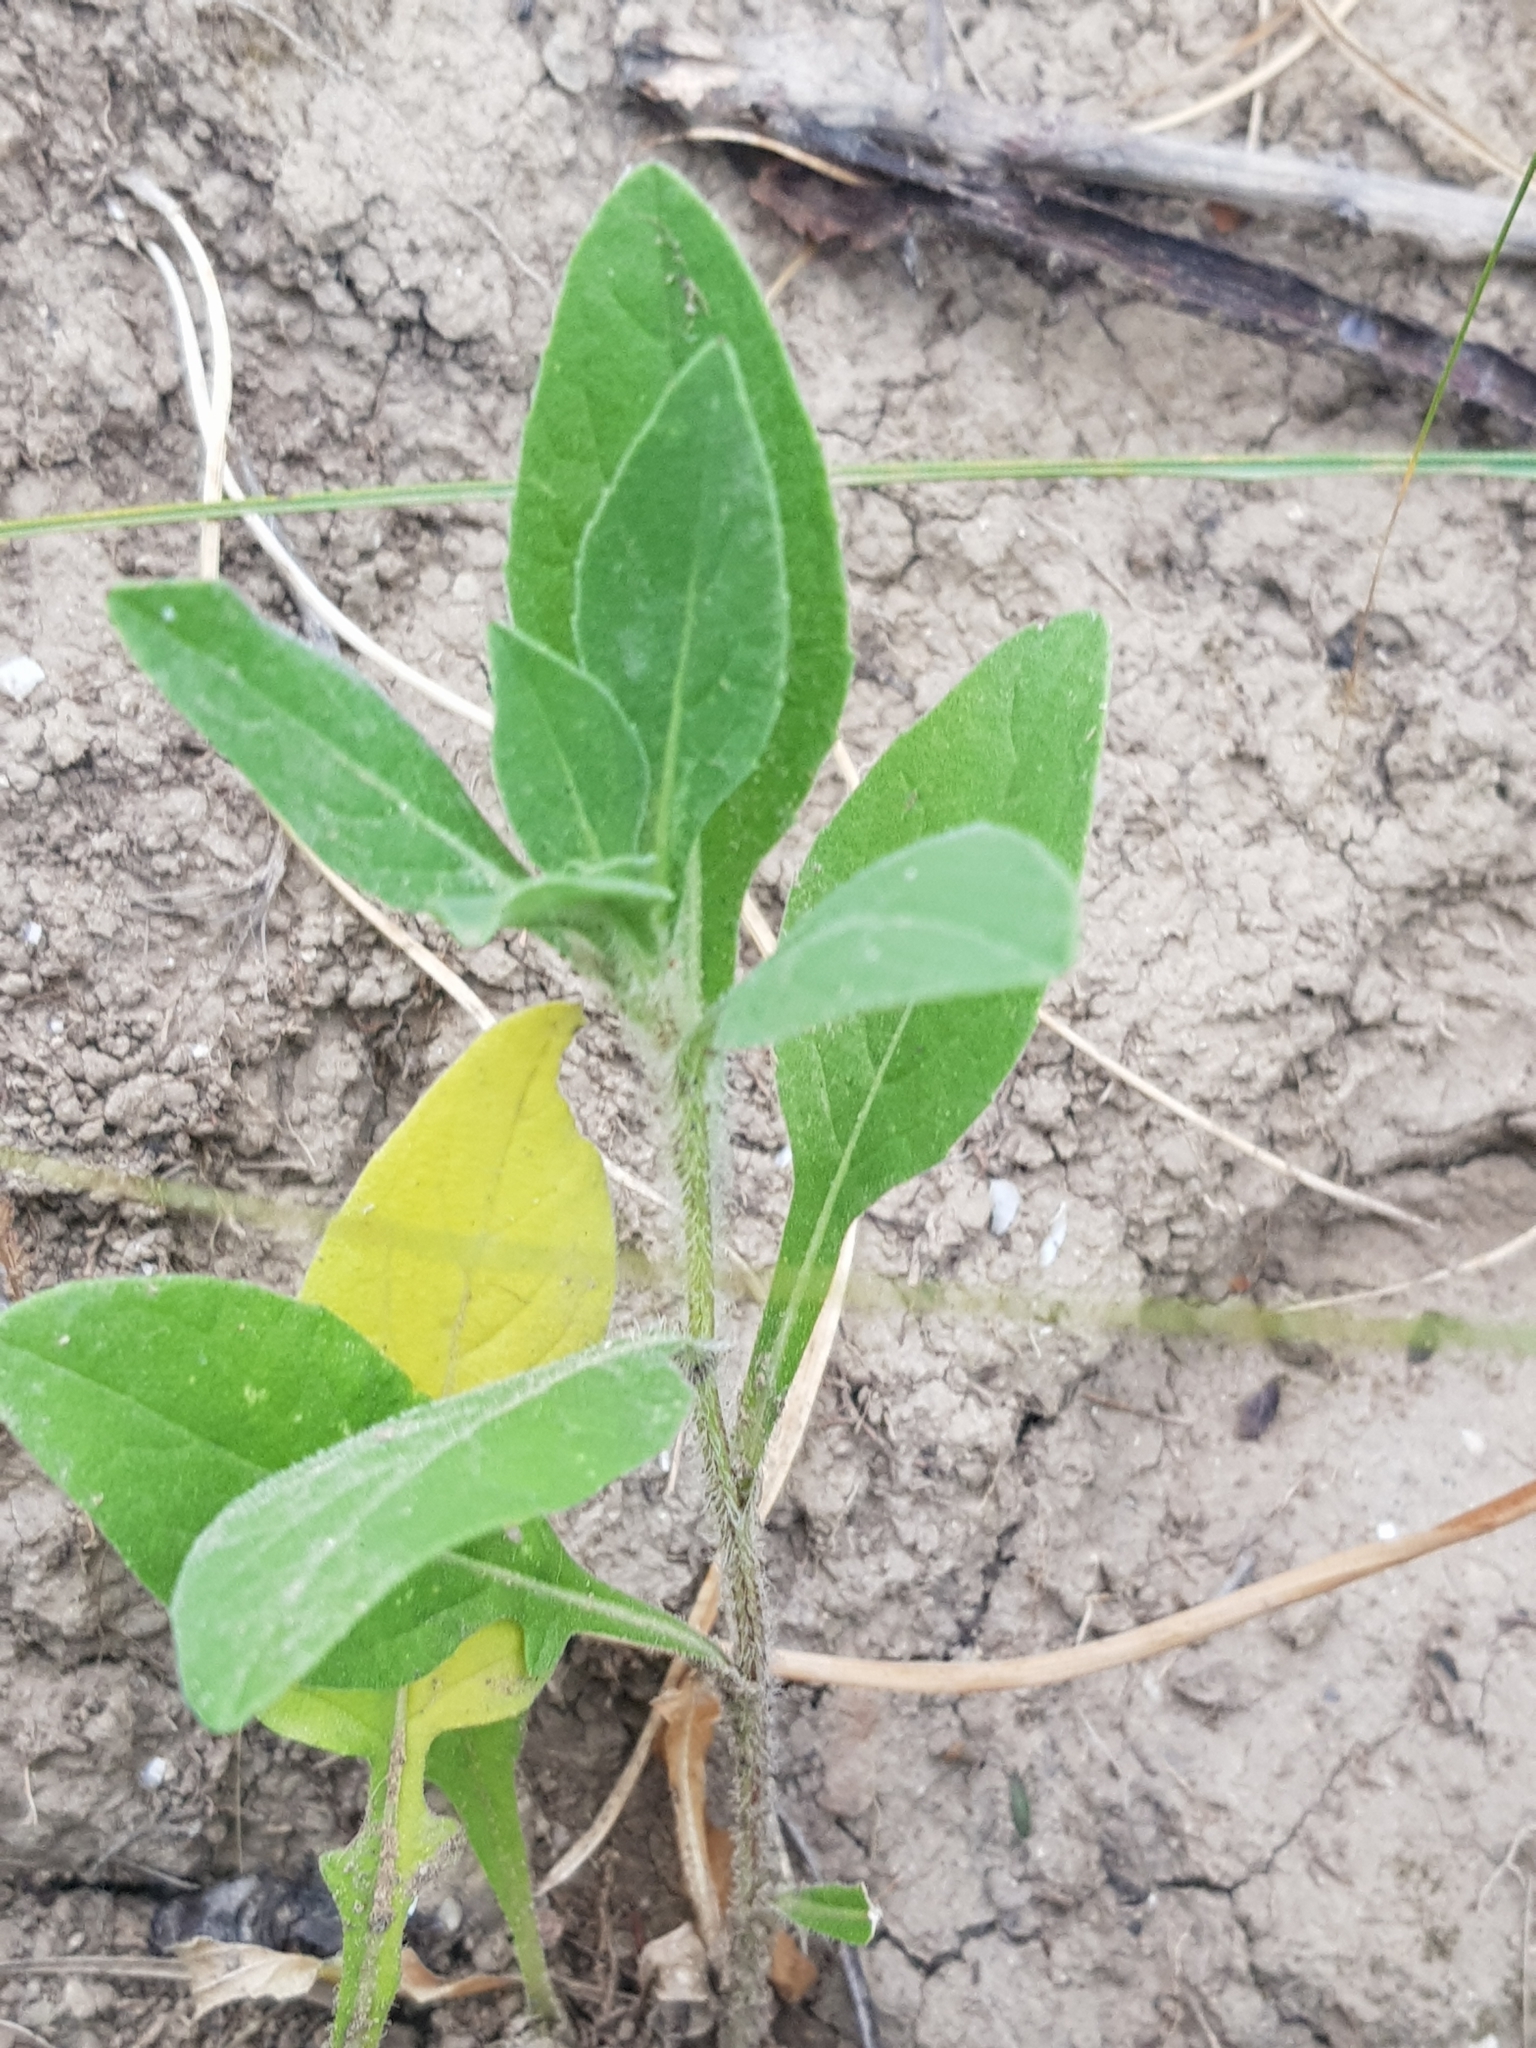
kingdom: Plantae
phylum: Tracheophyta
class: Magnoliopsida
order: Asterales
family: Asteraceae
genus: Centaurea
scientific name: Centaurea pullata
